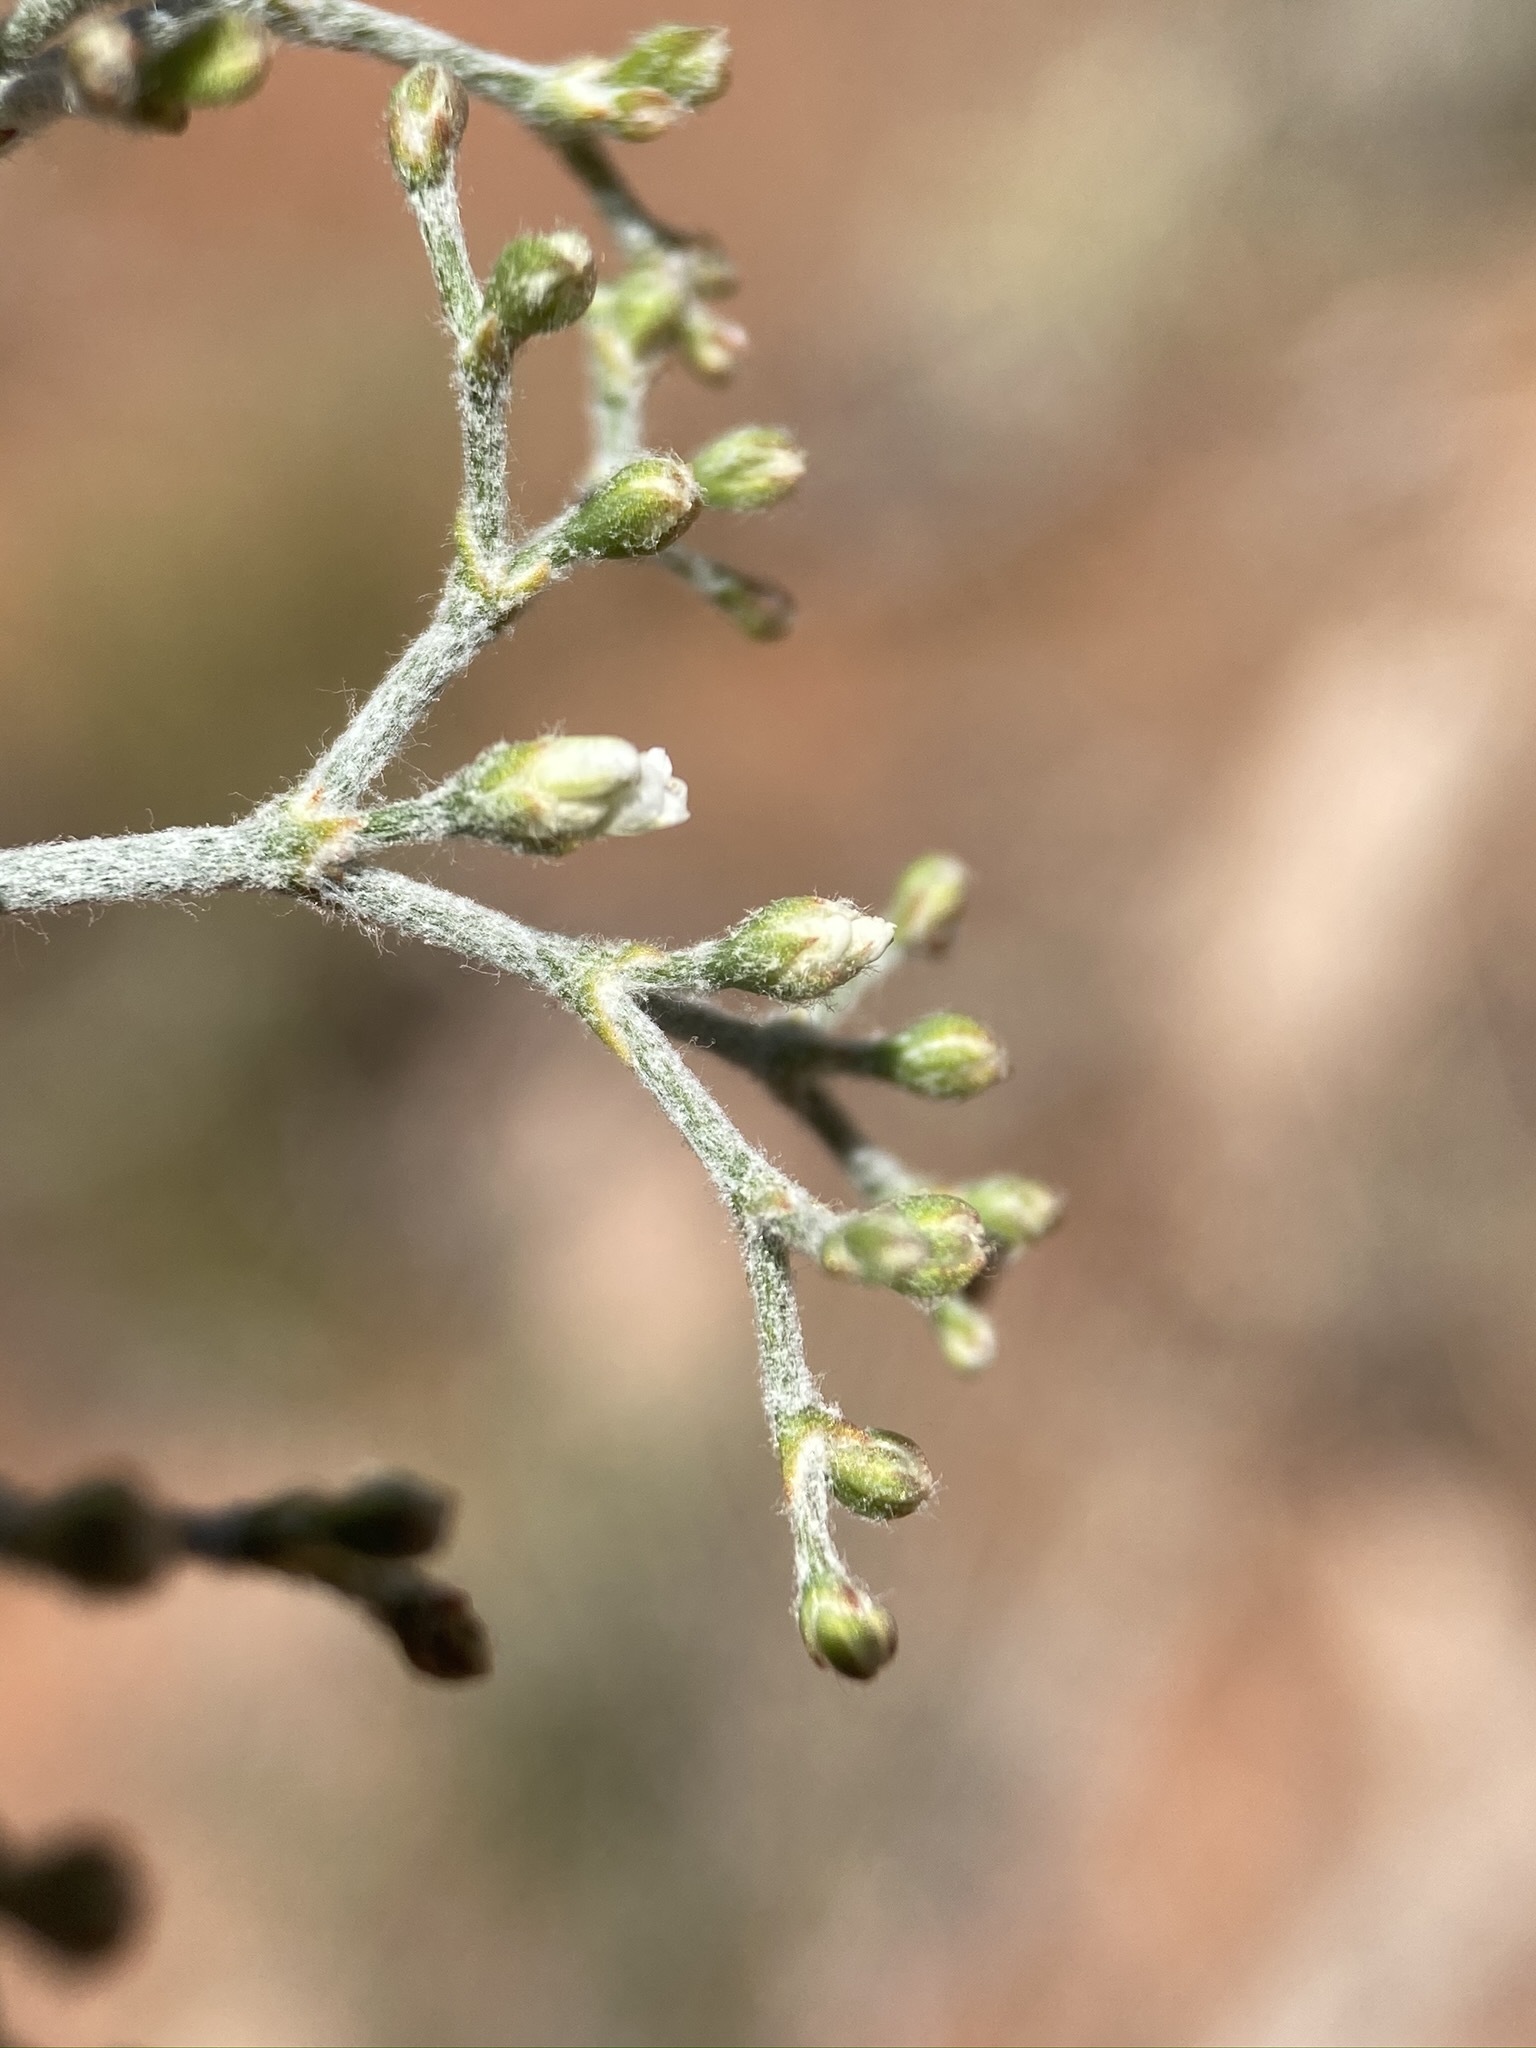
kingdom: Plantae
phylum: Tracheophyta
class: Magnoliopsida
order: Caryophyllales
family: Polygonaceae
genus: Eriogonum
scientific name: Eriogonum microtheca
